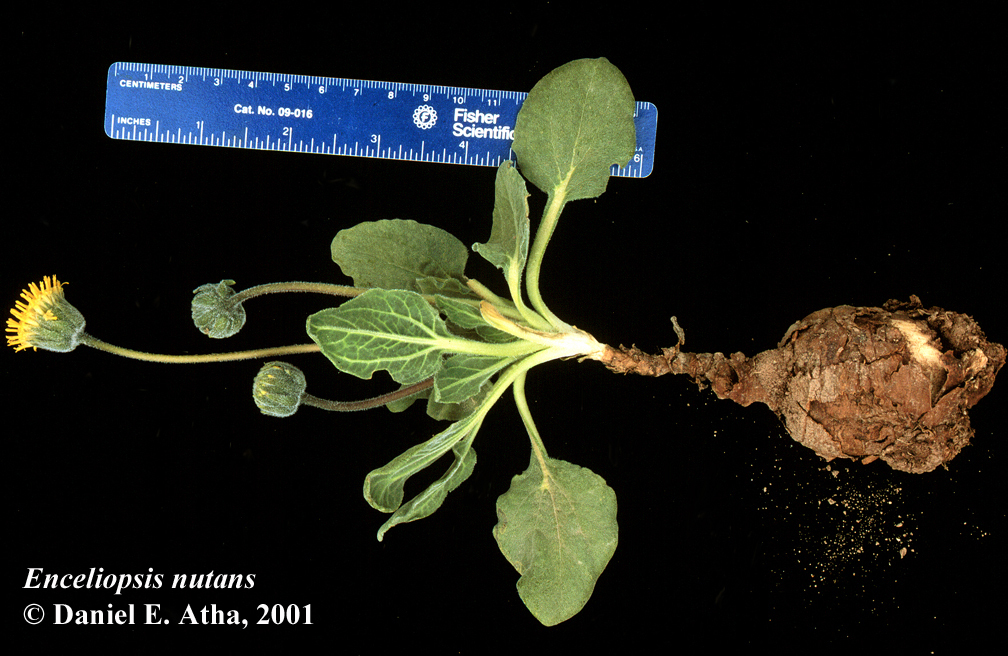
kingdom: Plantae
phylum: Tracheophyta
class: Magnoliopsida
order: Asterales
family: Asteraceae
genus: Encelia
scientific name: Encelia nutans
